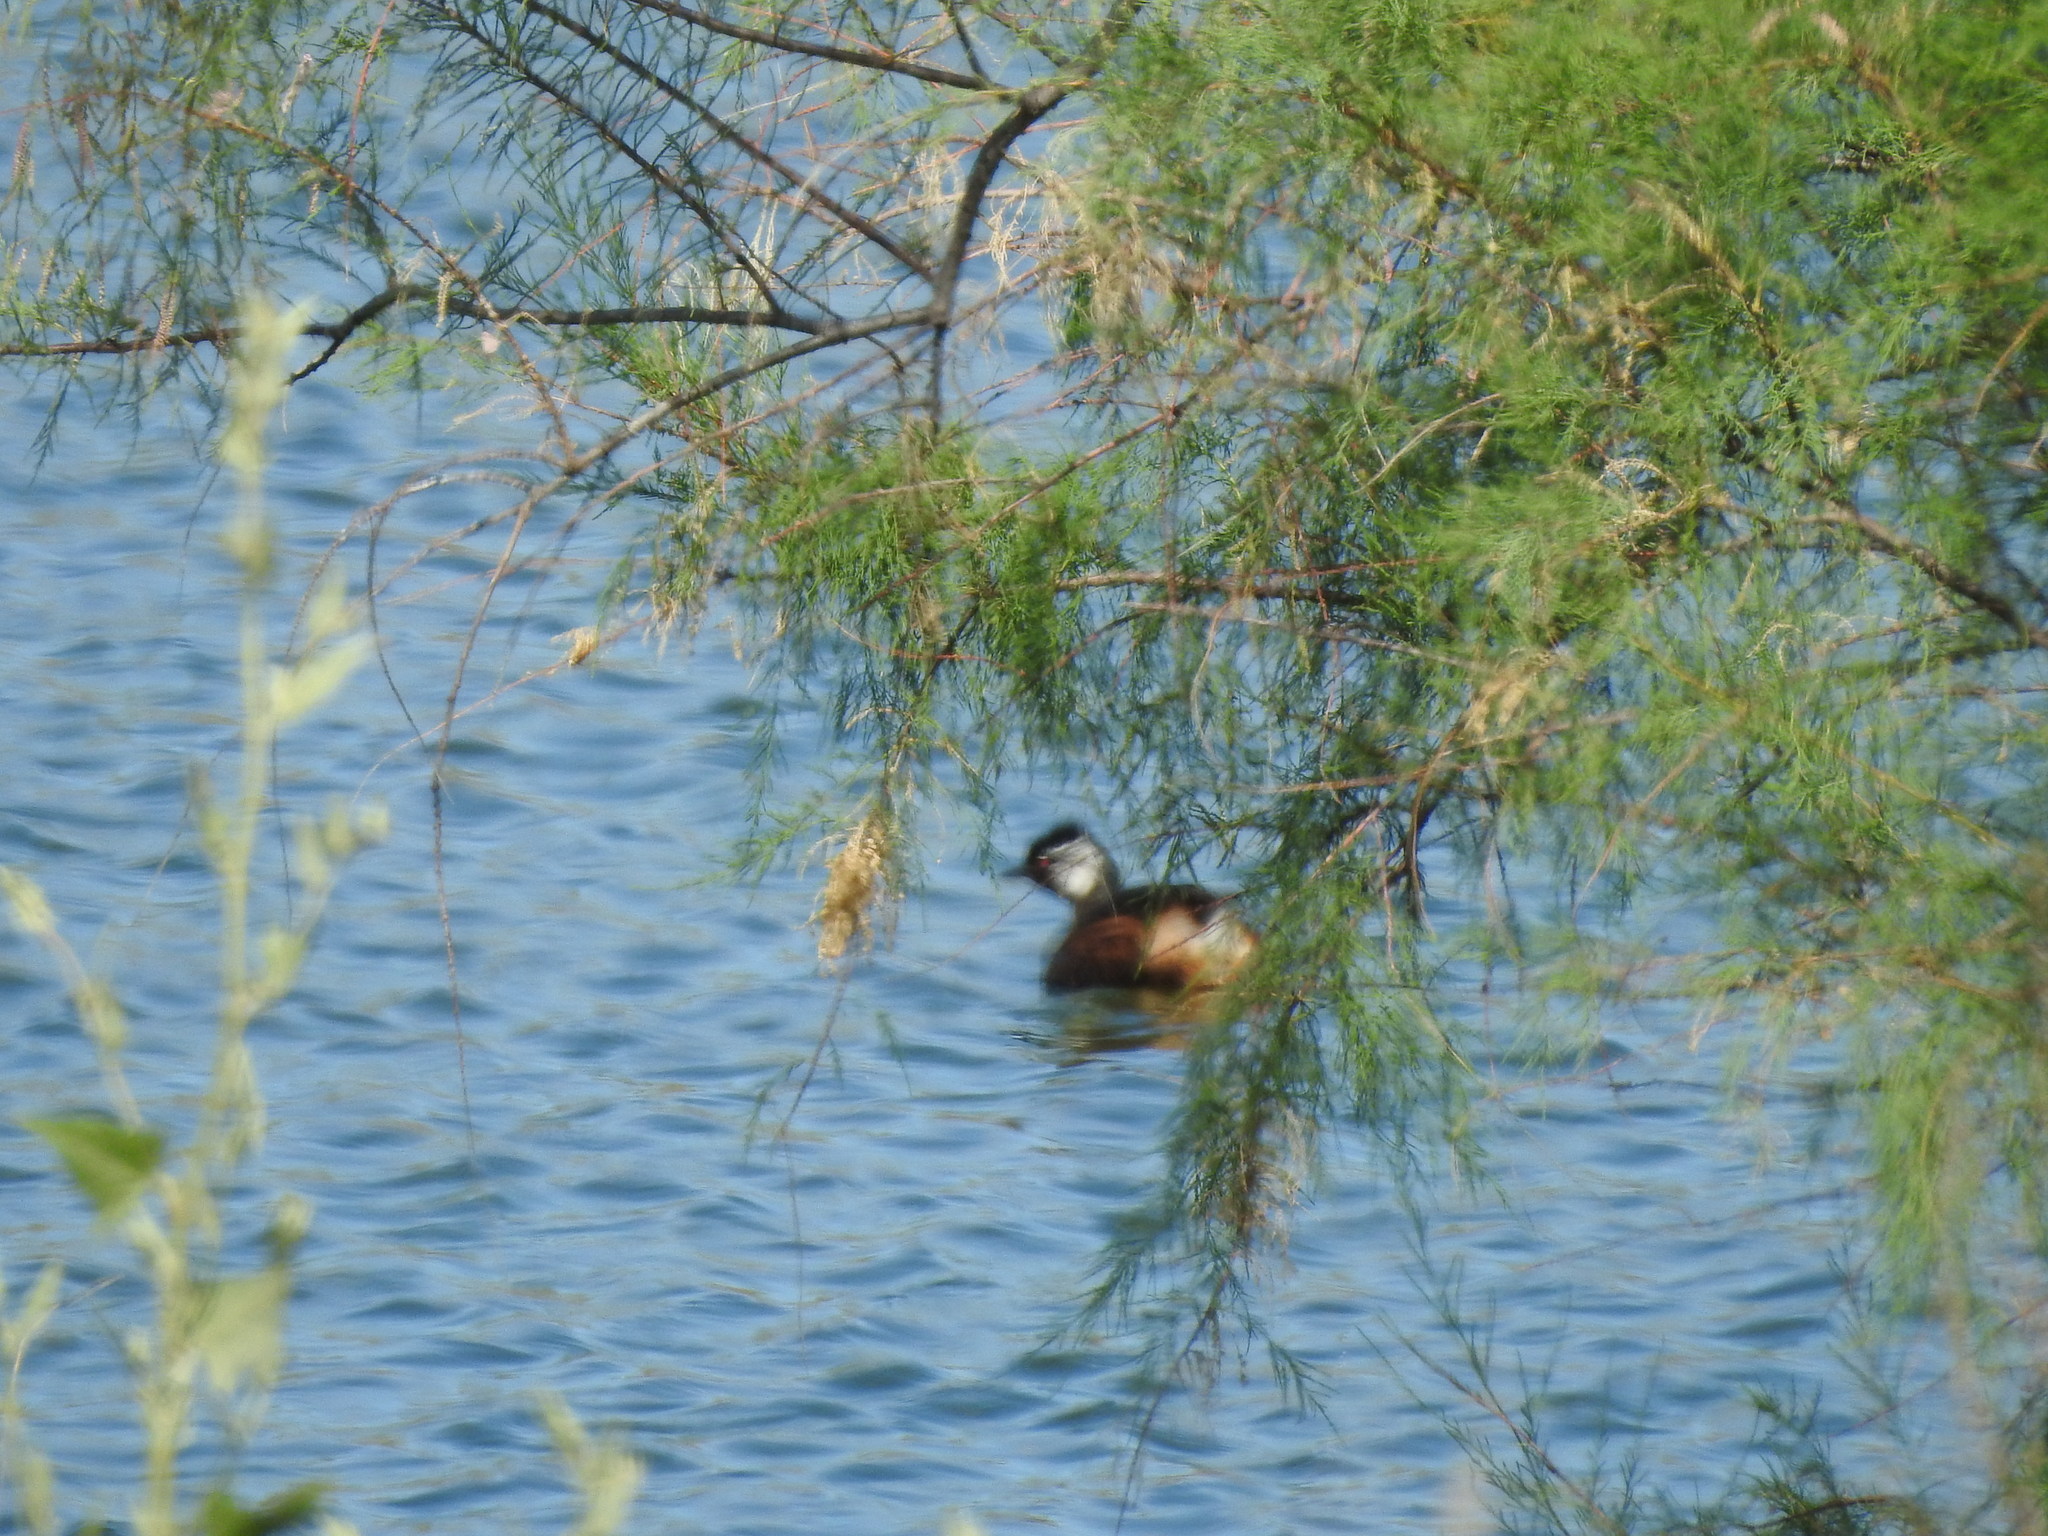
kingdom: Animalia
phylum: Chordata
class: Aves
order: Podicipediformes
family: Podicipedidae
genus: Rollandia
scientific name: Rollandia rolland
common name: White-tufted grebe
